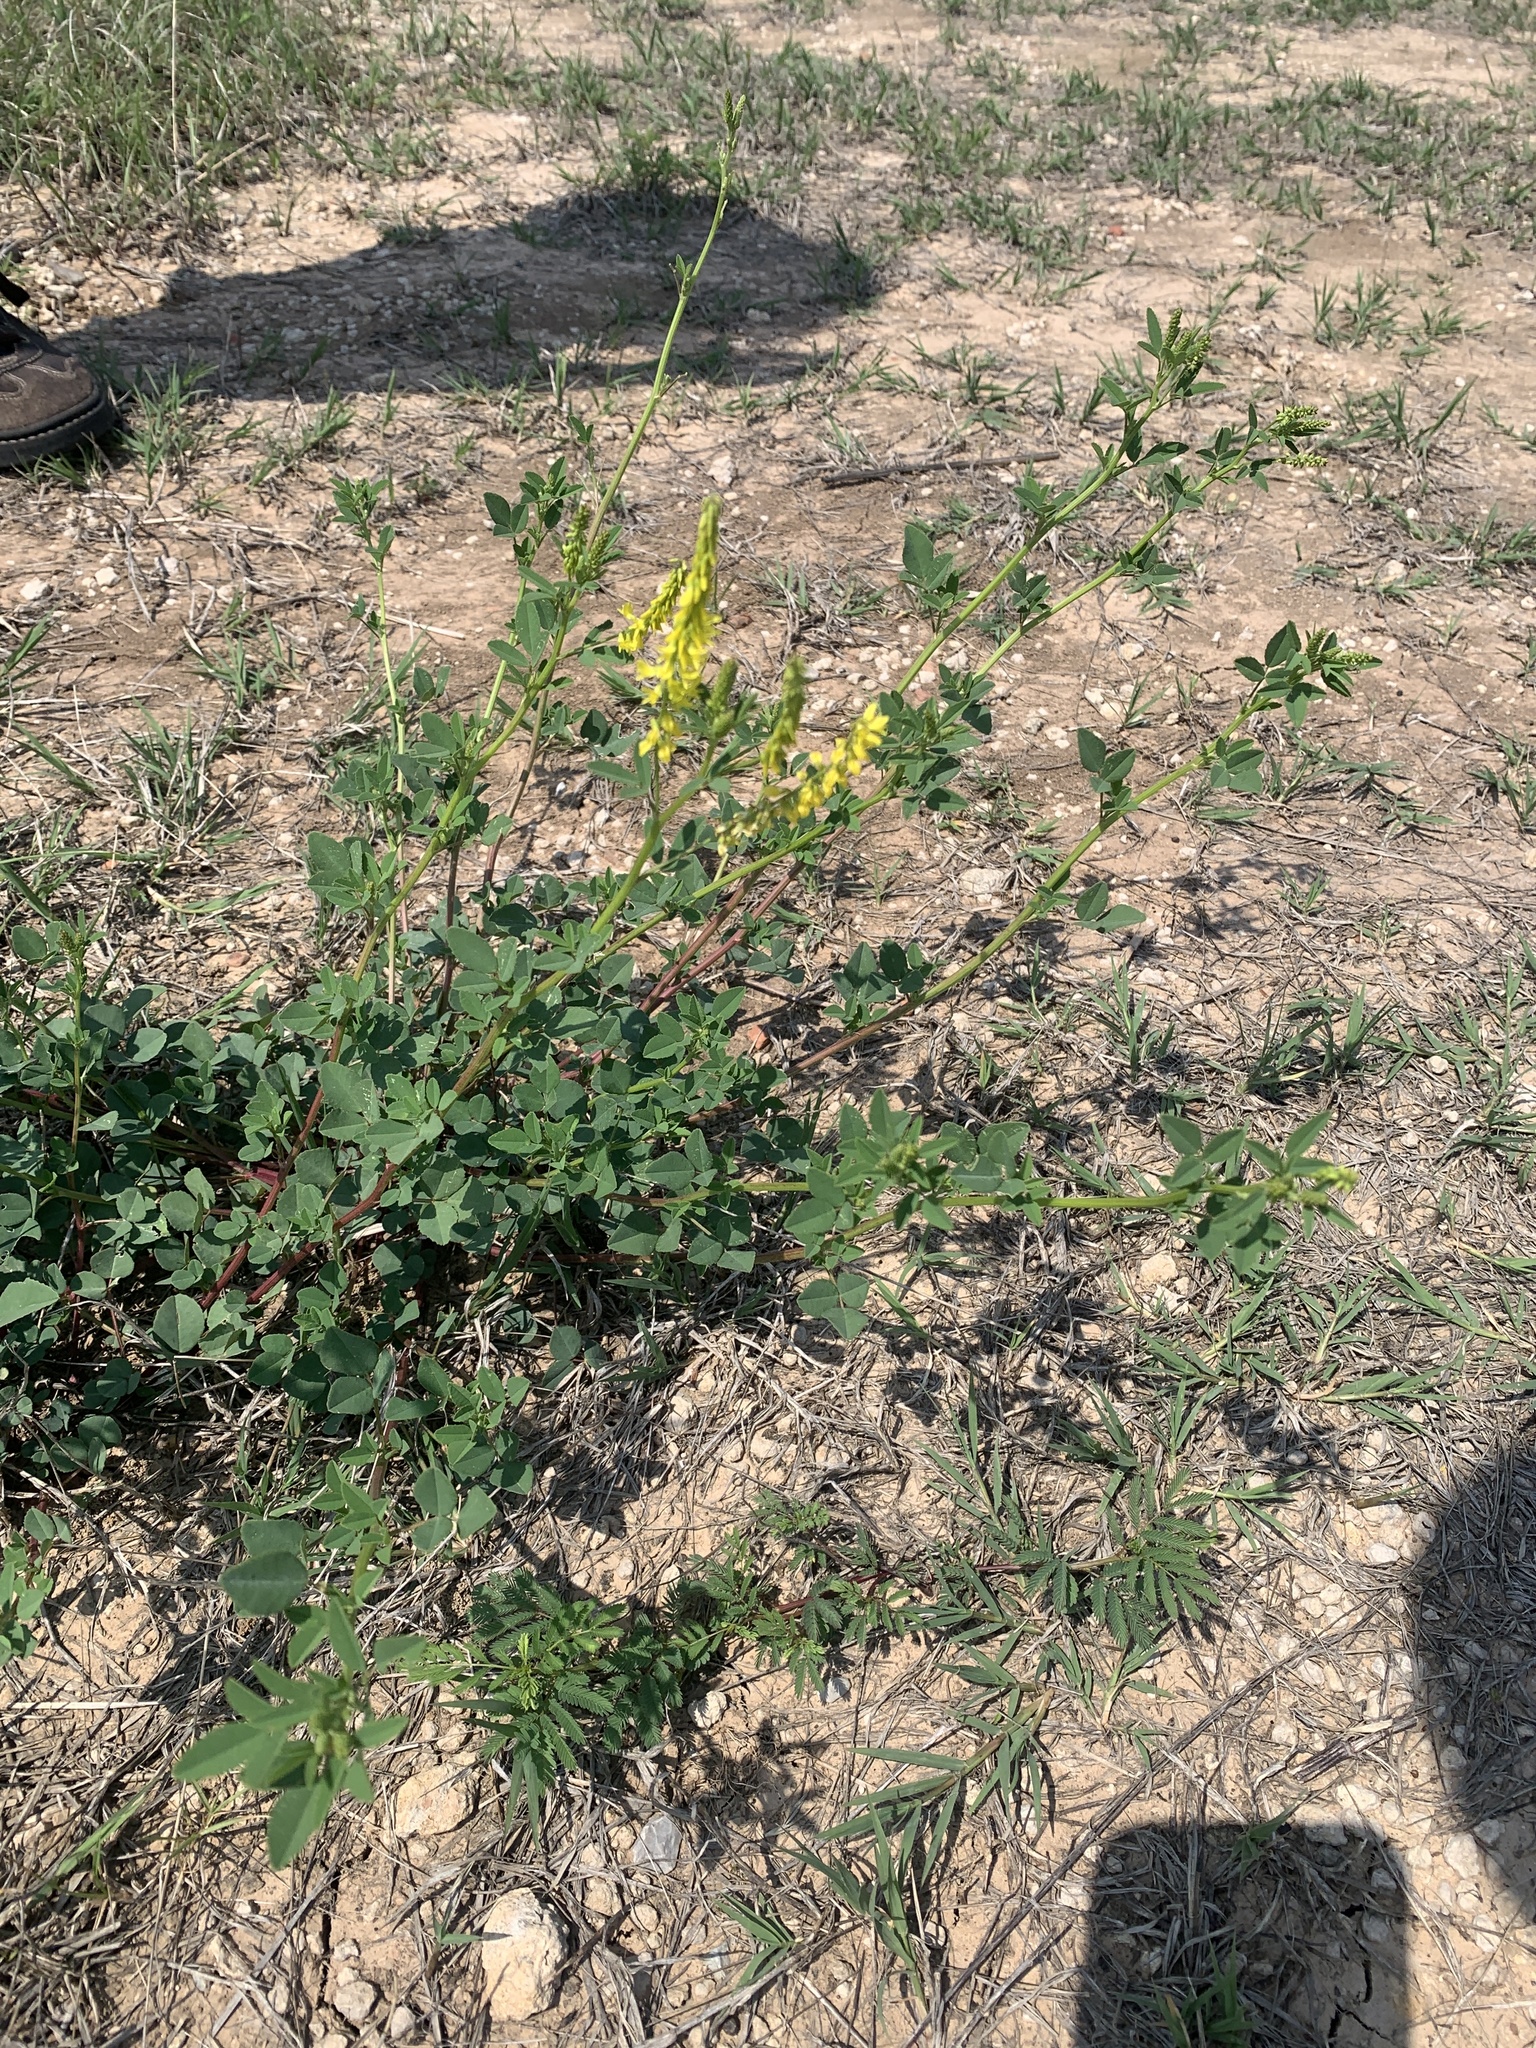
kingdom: Plantae
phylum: Tracheophyta
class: Magnoliopsida
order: Fabales
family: Fabaceae
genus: Melilotus
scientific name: Melilotus officinalis
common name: Sweetclover
